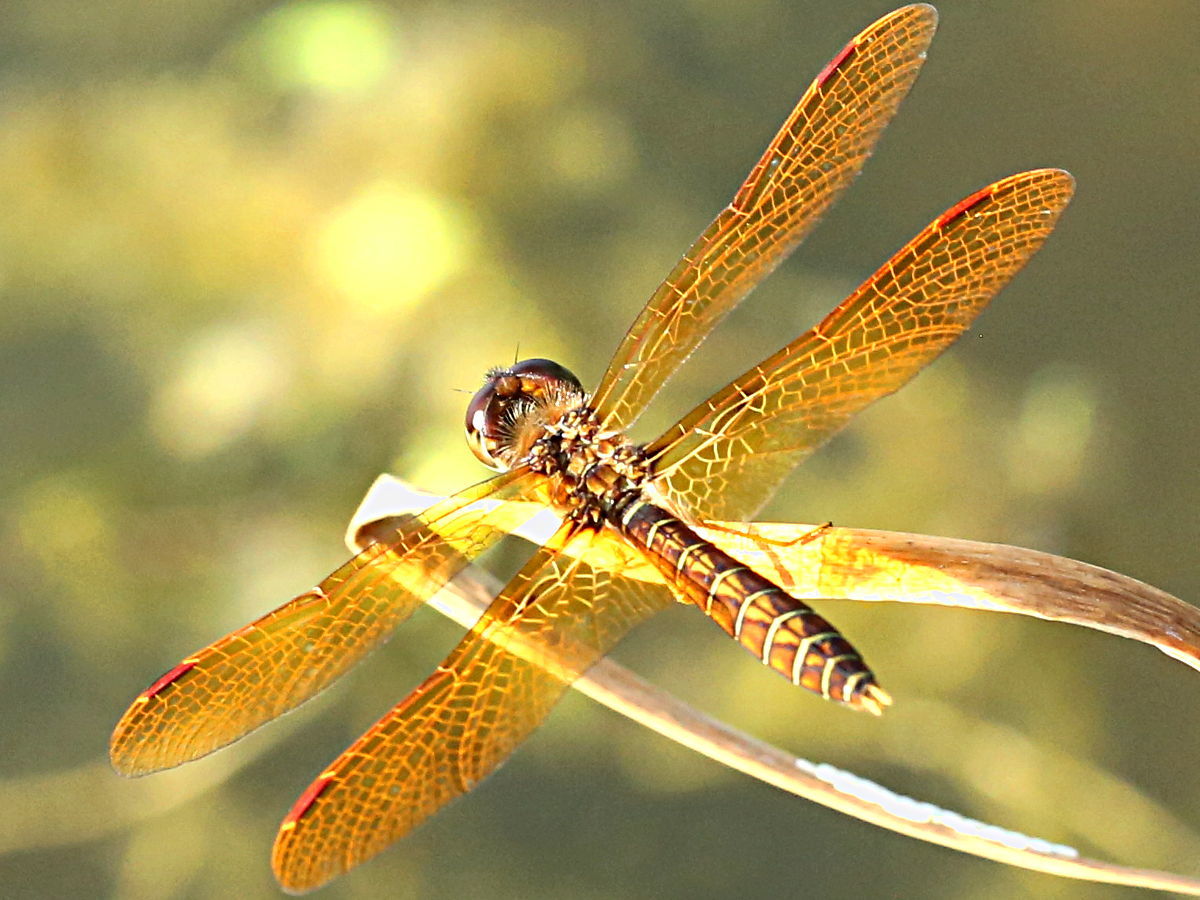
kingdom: Animalia
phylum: Arthropoda
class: Insecta
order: Odonata
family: Libellulidae
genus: Perithemis
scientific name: Perithemis tenera
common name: Eastern amberwing
